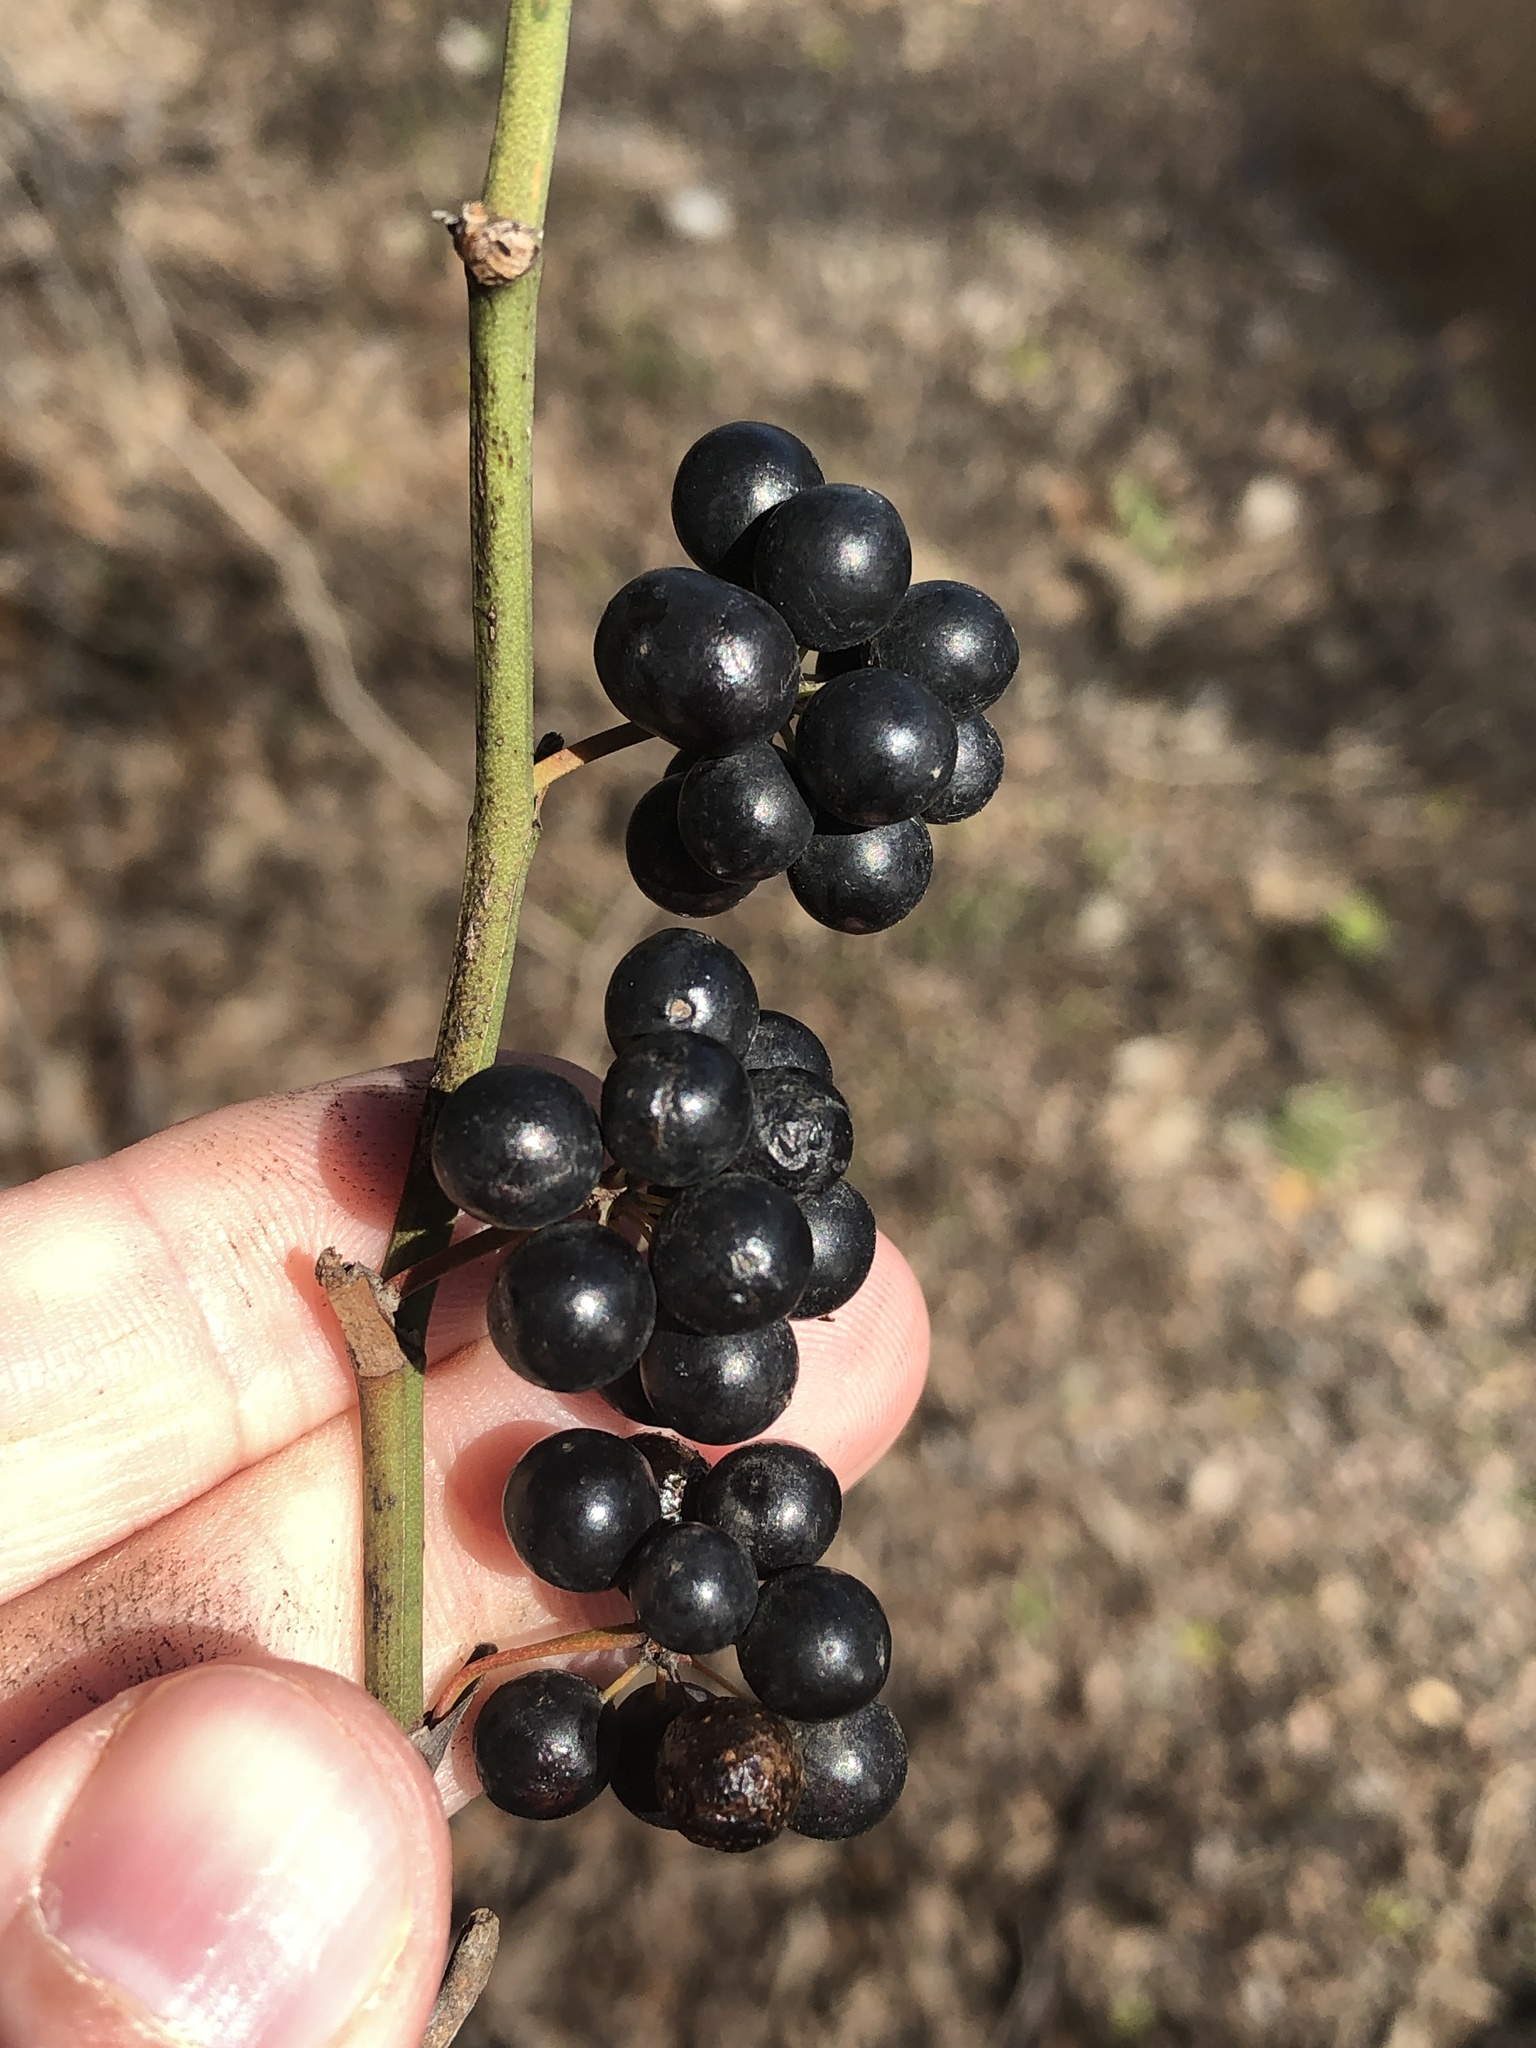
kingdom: Plantae
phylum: Tracheophyta
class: Liliopsida
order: Liliales
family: Smilacaceae
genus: Smilax
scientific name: Smilax bona-nox
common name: Catbrier
